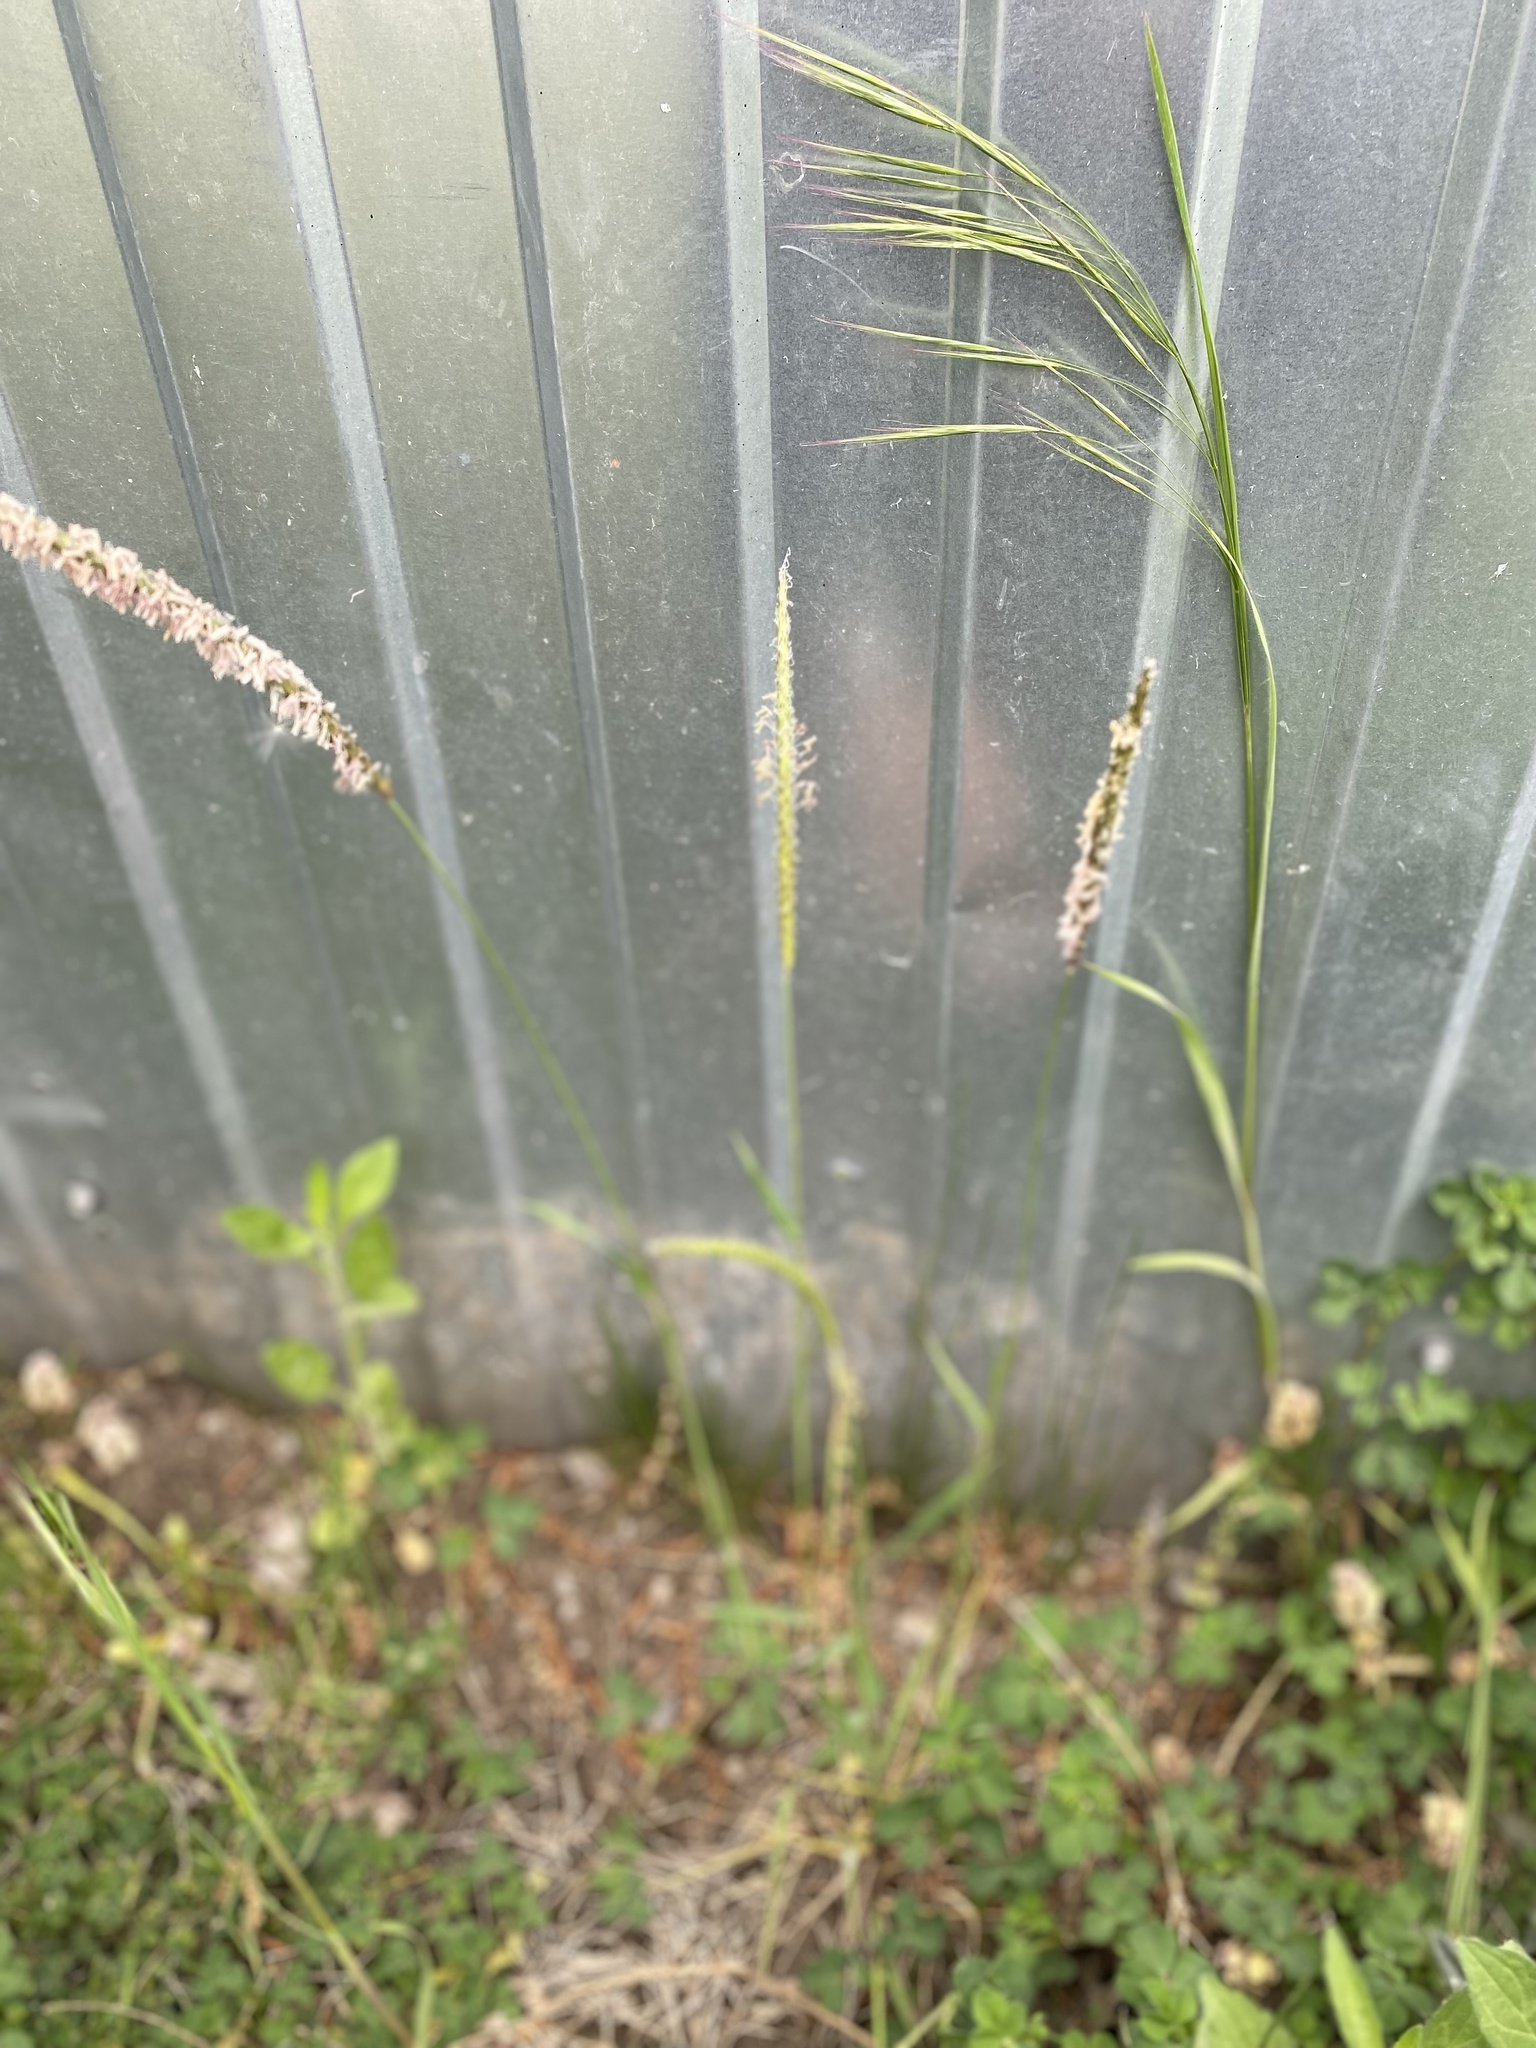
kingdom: Plantae
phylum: Tracheophyta
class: Liliopsida
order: Poales
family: Poaceae
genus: Alopecurus
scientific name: Alopecurus myosuroides
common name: Black-grass
